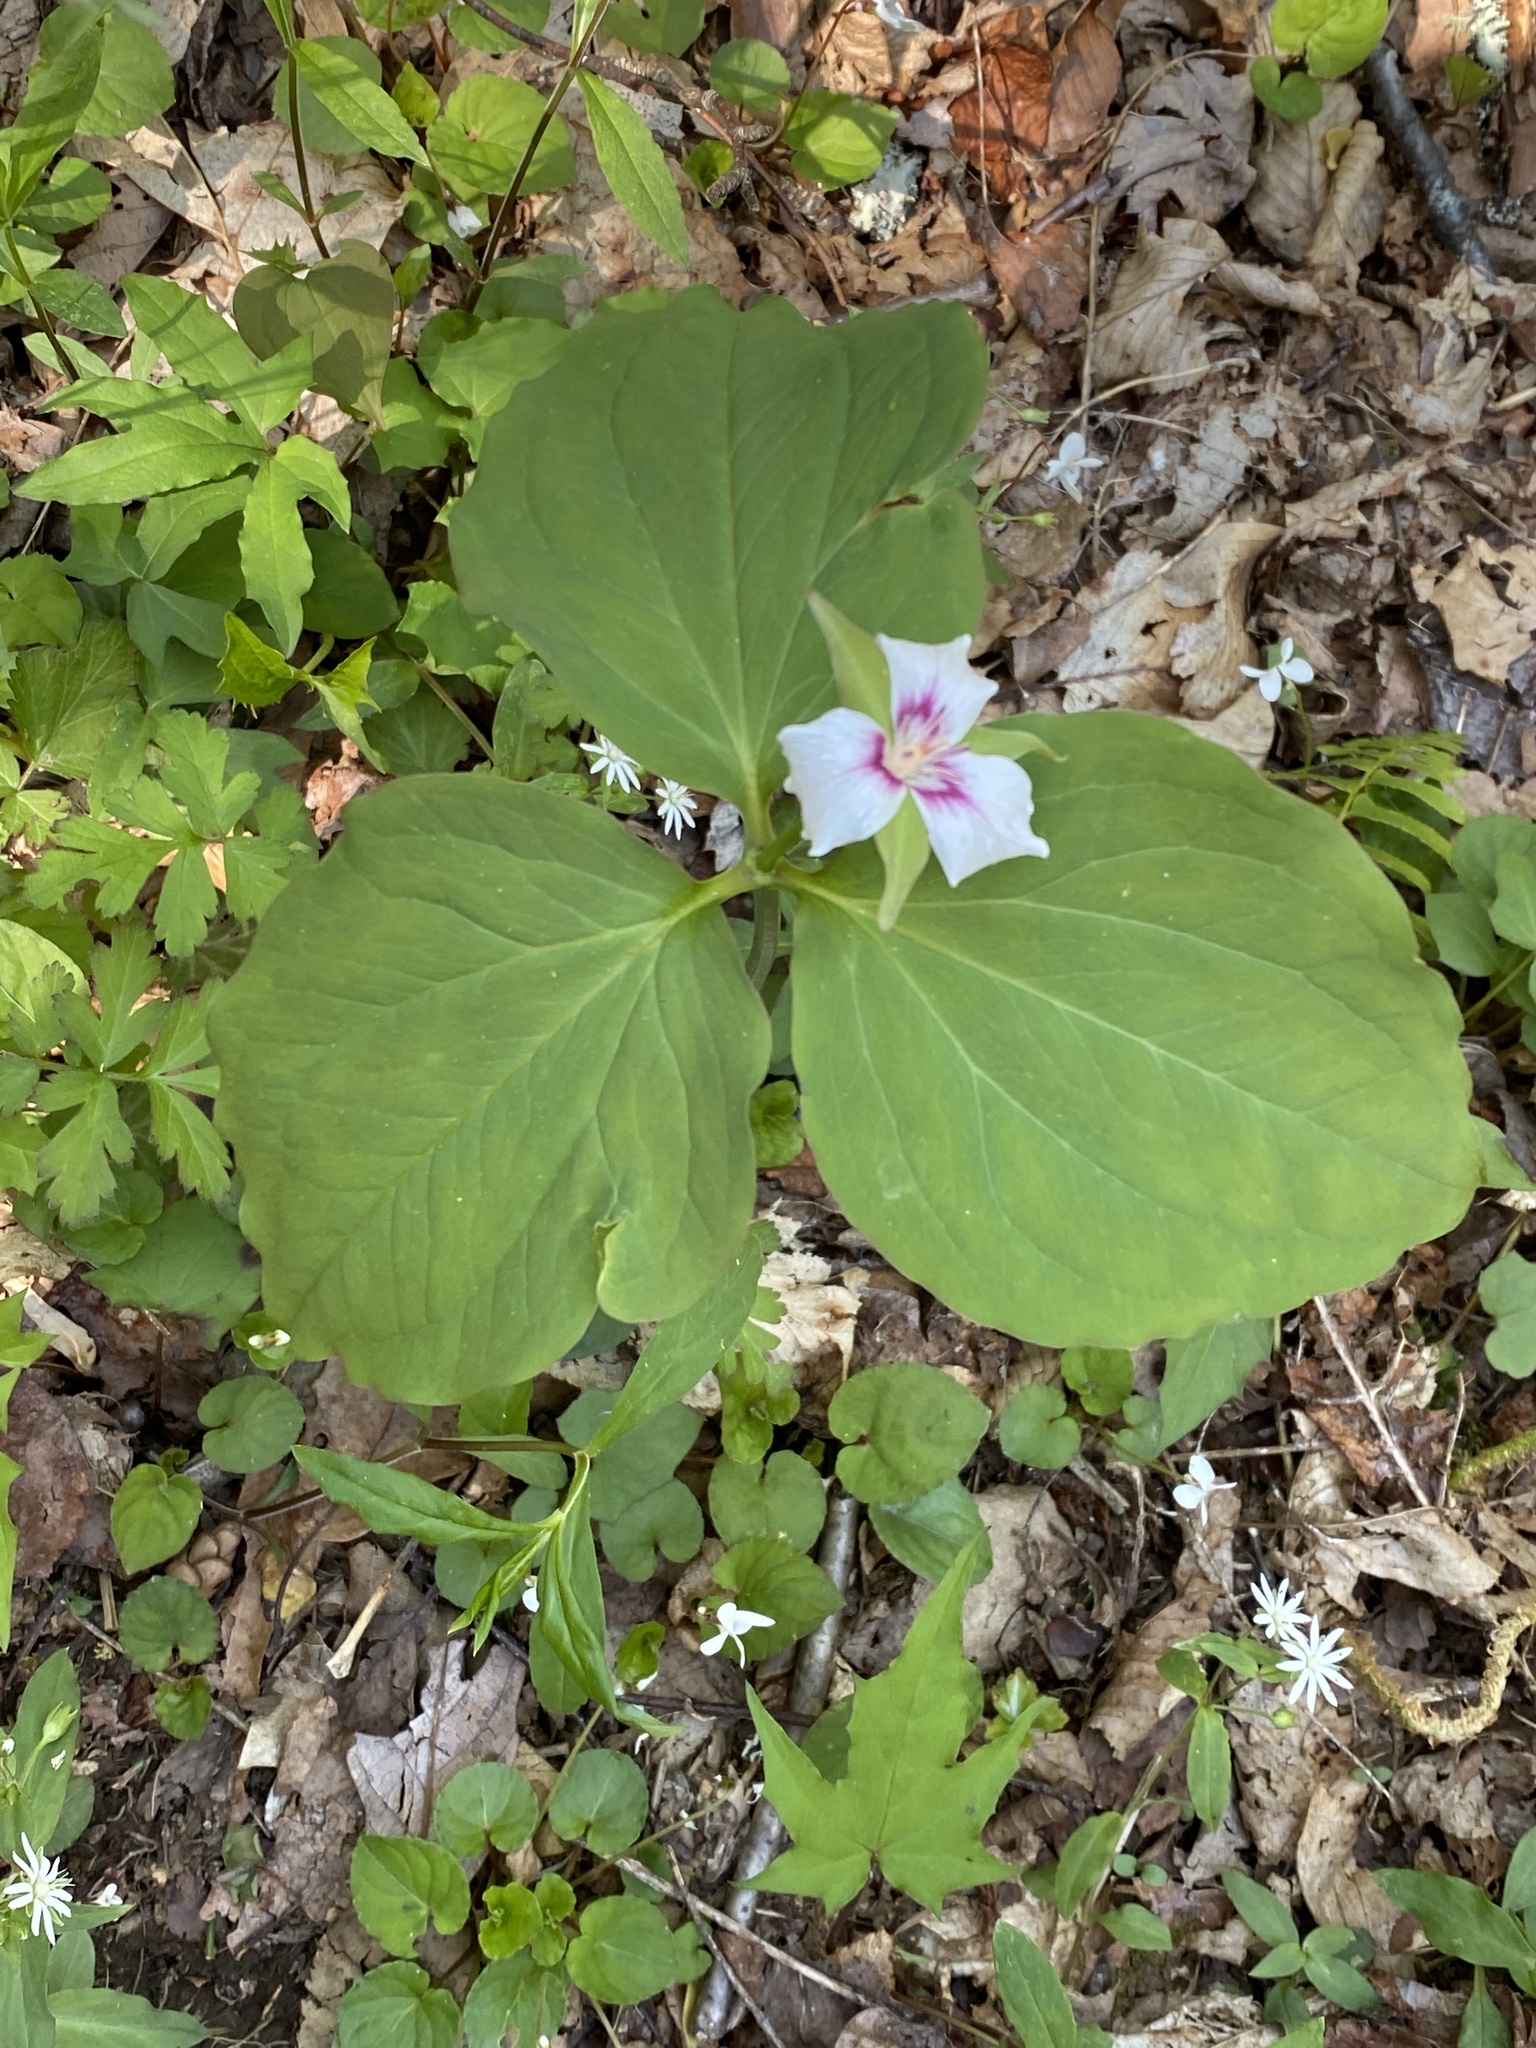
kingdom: Plantae
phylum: Tracheophyta
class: Liliopsida
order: Liliales
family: Melanthiaceae
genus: Trillium
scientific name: Trillium undulatum
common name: Paint trillium
